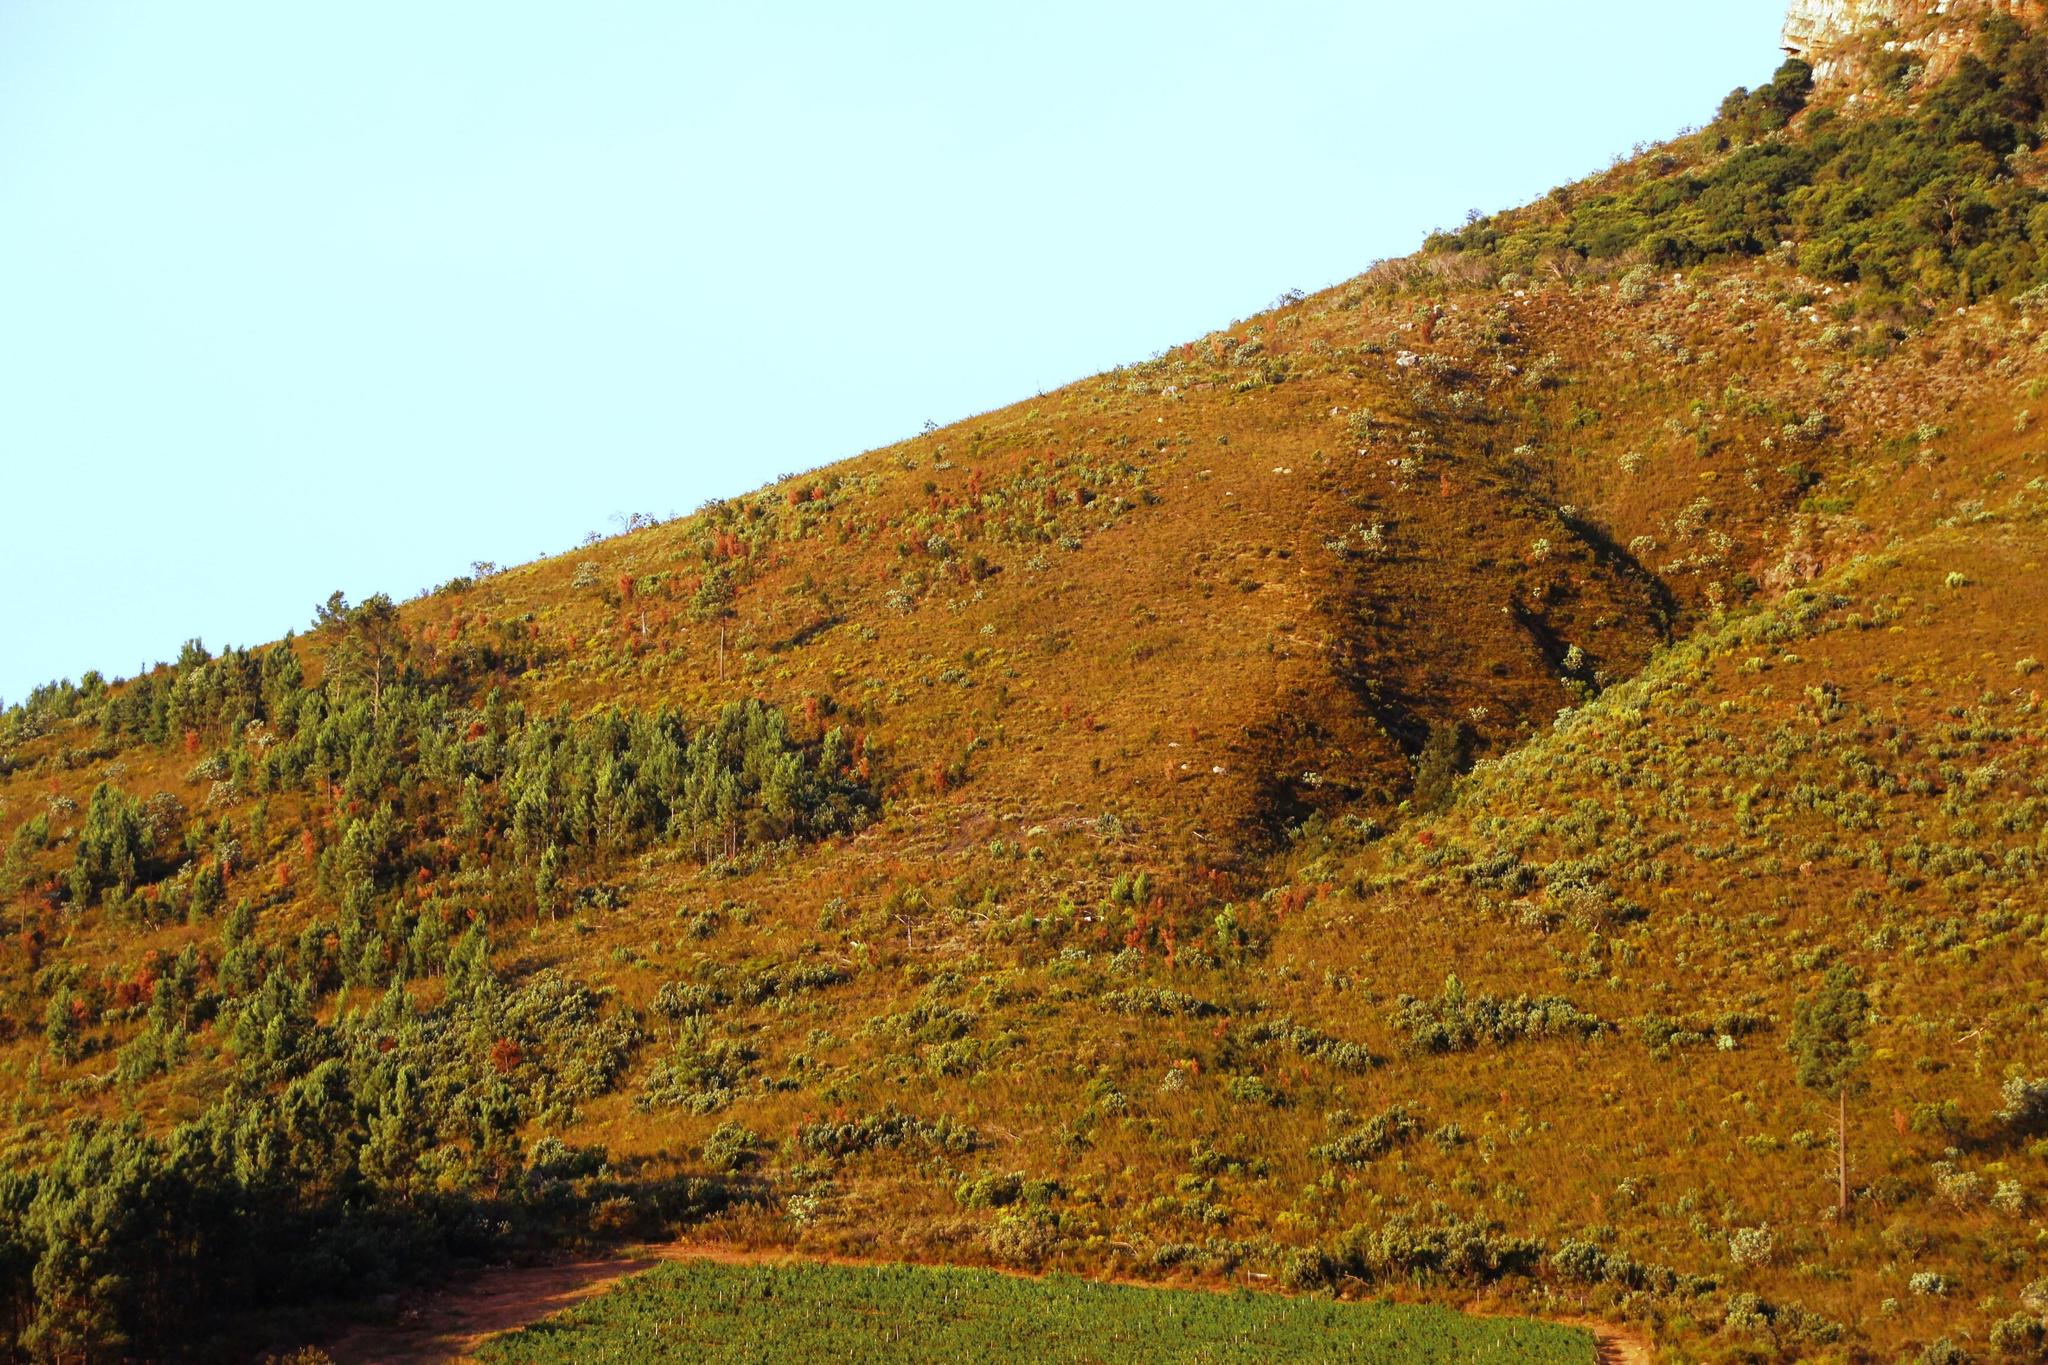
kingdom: Plantae
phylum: Tracheophyta
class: Magnoliopsida
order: Proteales
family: Proteaceae
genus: Hakea
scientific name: Hakea sericea
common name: Needle bush
